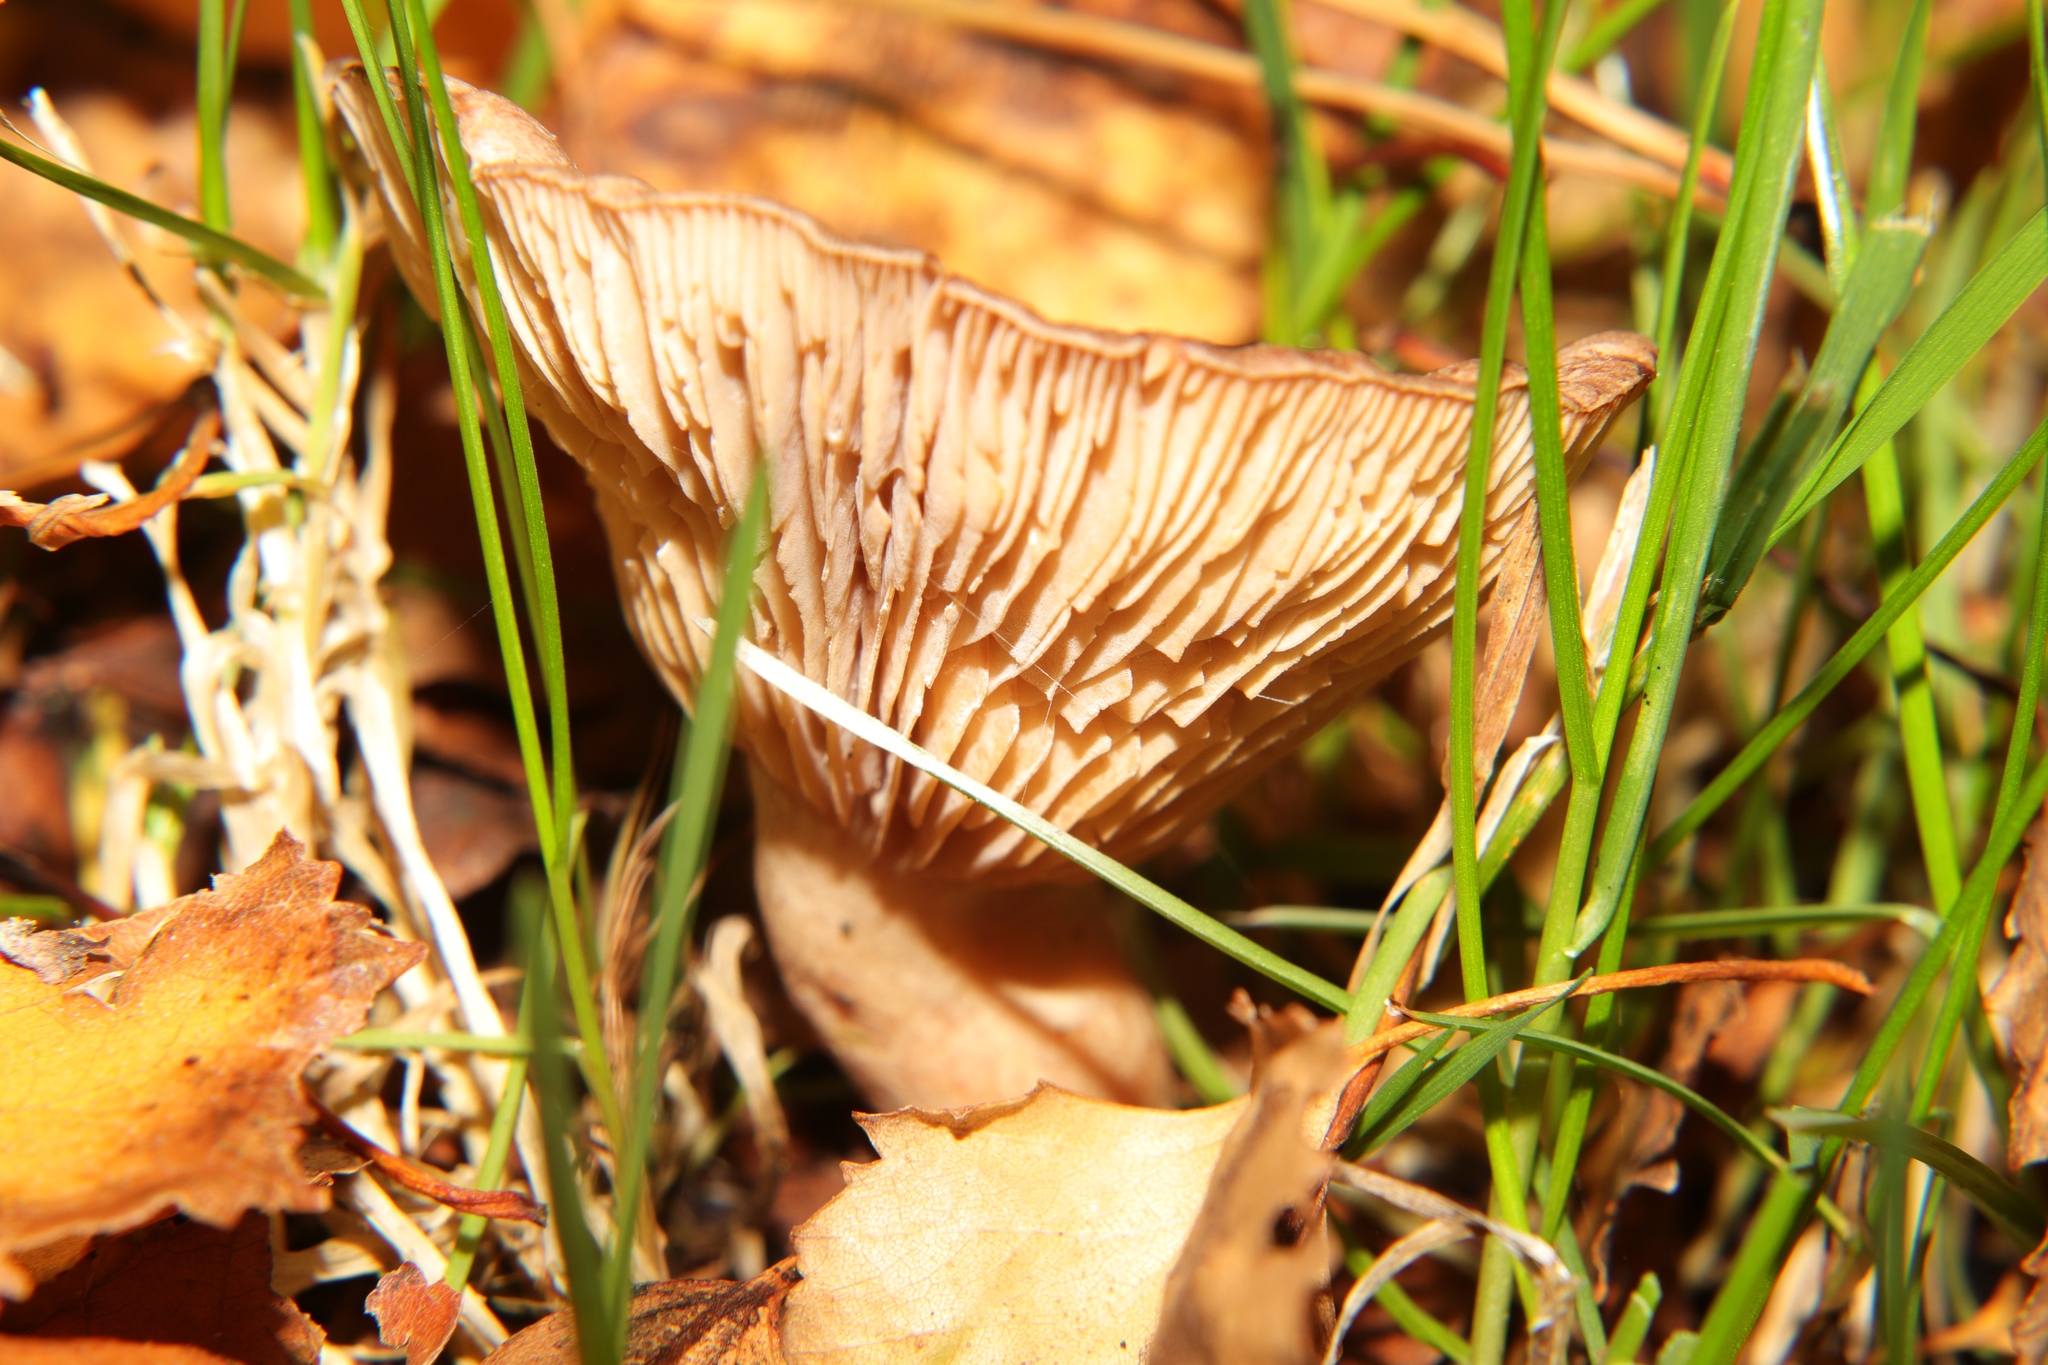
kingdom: Fungi
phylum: Basidiomycota
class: Agaricomycetes
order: Russulales
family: Russulaceae
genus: Lactarius
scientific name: Lactarius glyciosmus
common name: Coconut milkcap
